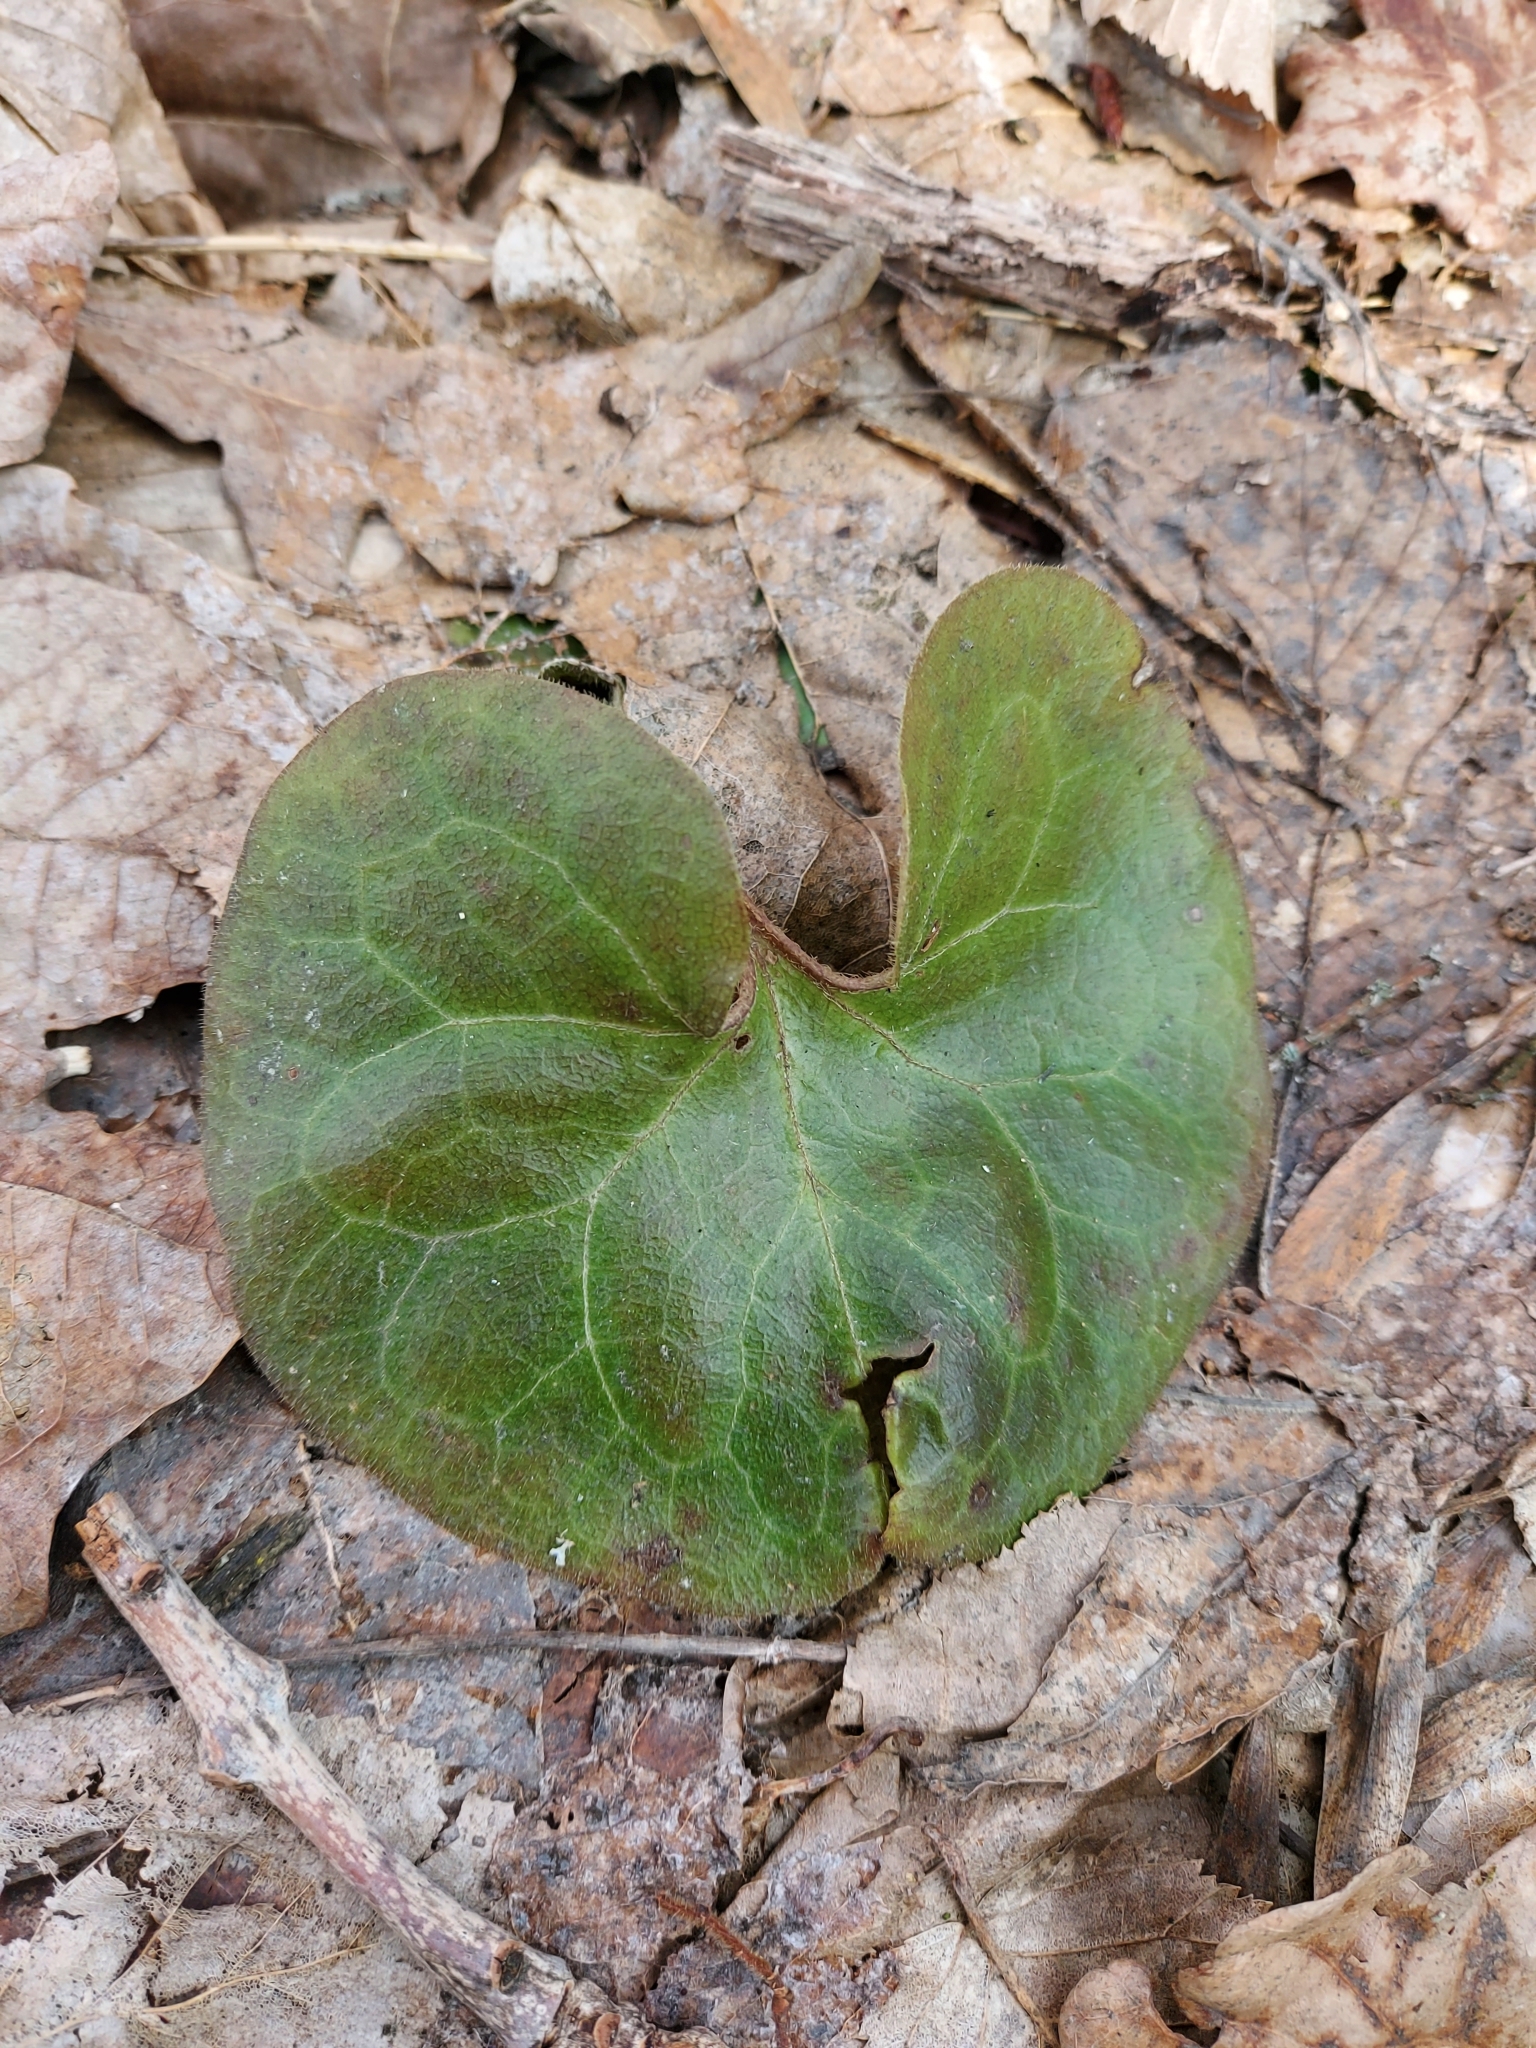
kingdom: Plantae
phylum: Tracheophyta
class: Magnoliopsida
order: Piperales
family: Aristolochiaceae
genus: Asarum
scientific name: Asarum europaeum
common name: Asarabacca
